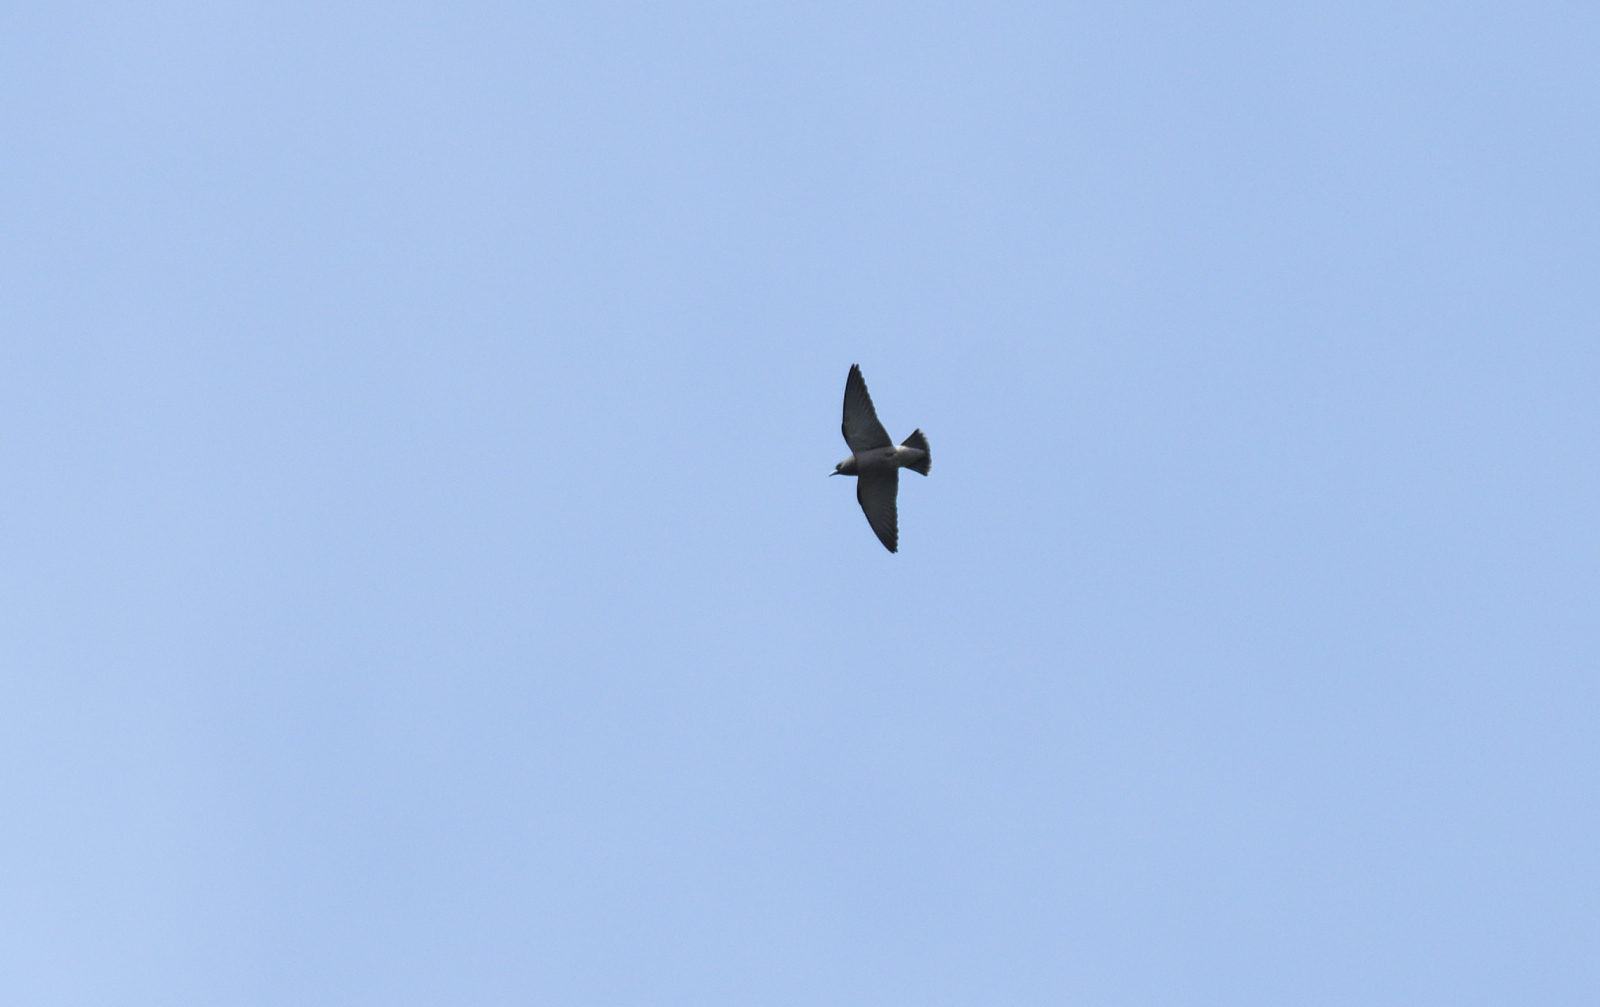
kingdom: Animalia
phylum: Chordata
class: Aves
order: Passeriformes
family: Artamidae
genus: Artamus
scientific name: Artamus fuscus
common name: Ashy woodswallow
